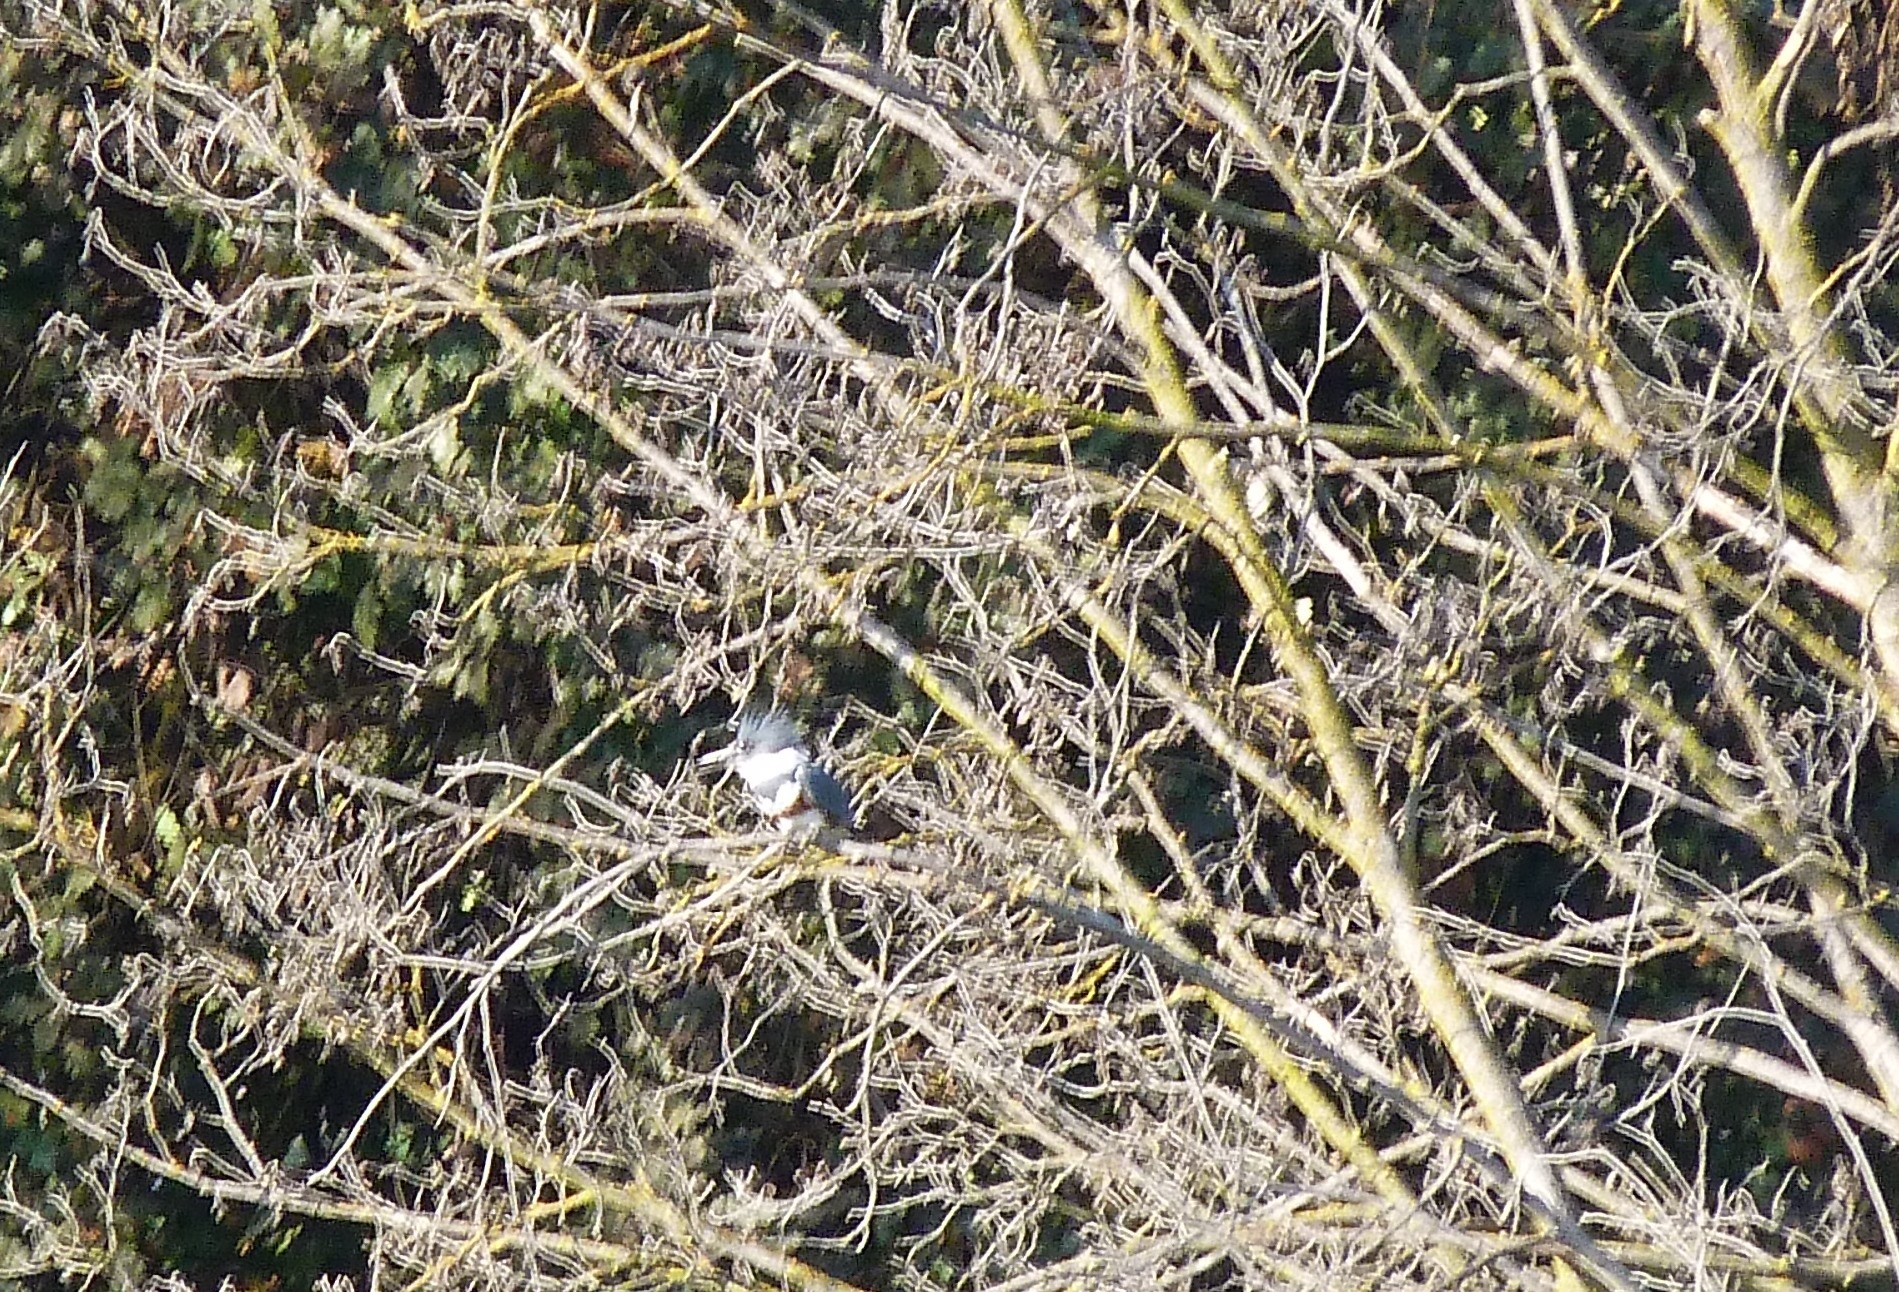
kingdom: Animalia
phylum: Chordata
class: Aves
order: Coraciiformes
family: Alcedinidae
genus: Megaceryle
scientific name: Megaceryle alcyon
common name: Belted kingfisher
